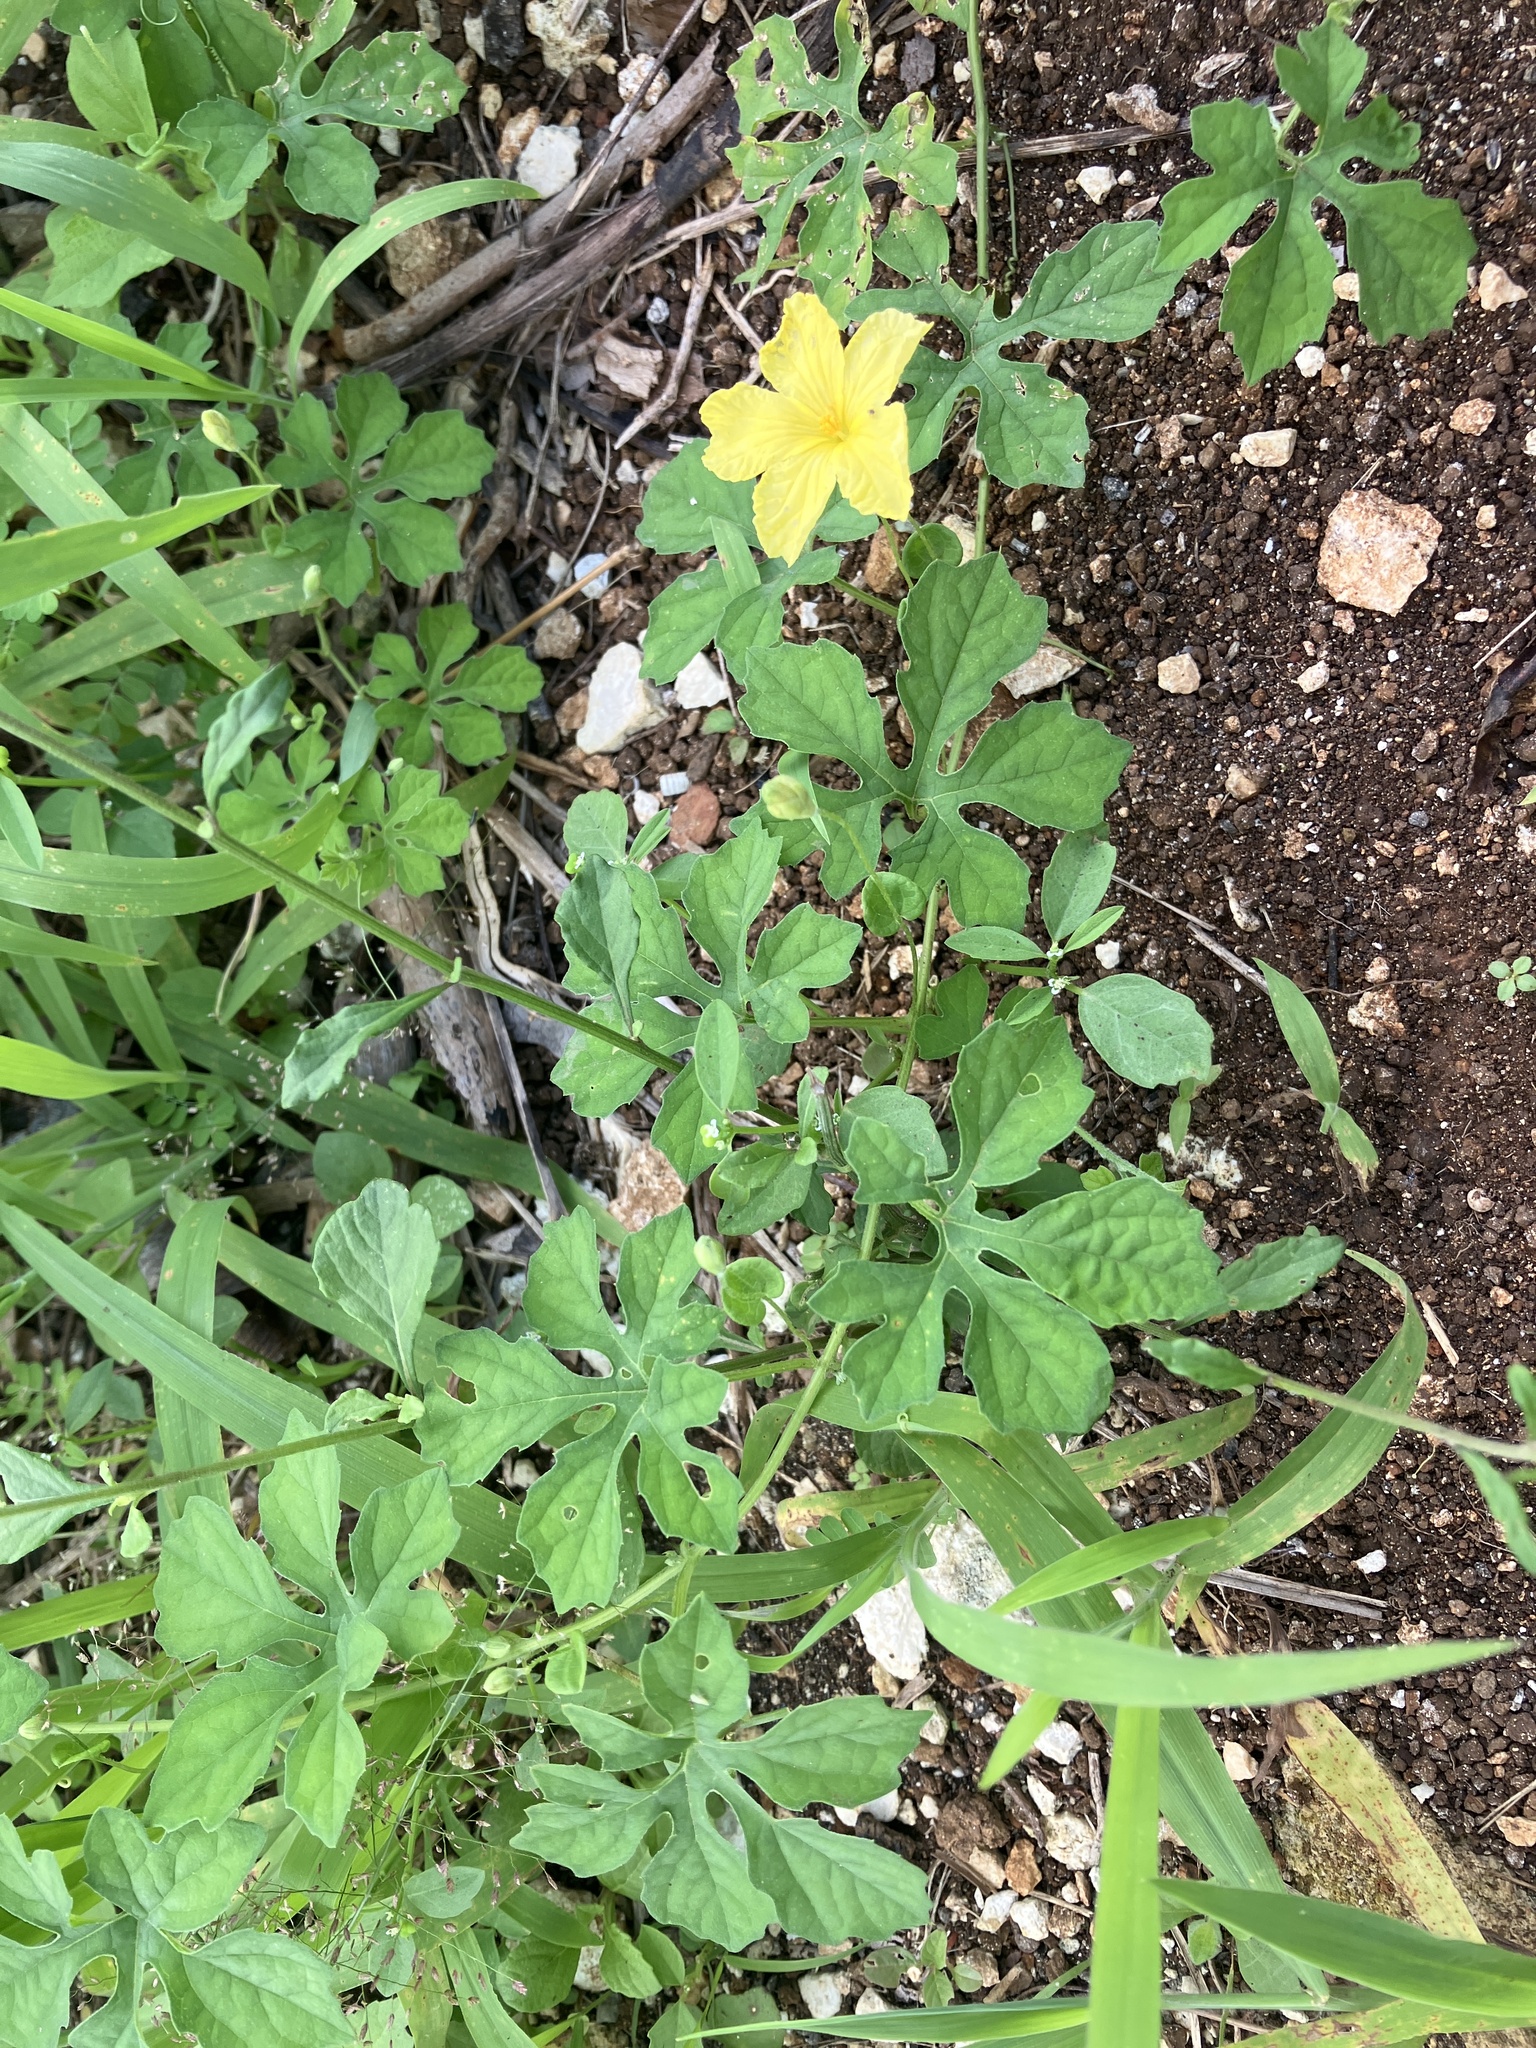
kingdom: Plantae
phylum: Tracheophyta
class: Magnoliopsida
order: Cucurbitales
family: Cucurbitaceae
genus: Momordica
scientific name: Momordica charantia
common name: Balsampear
